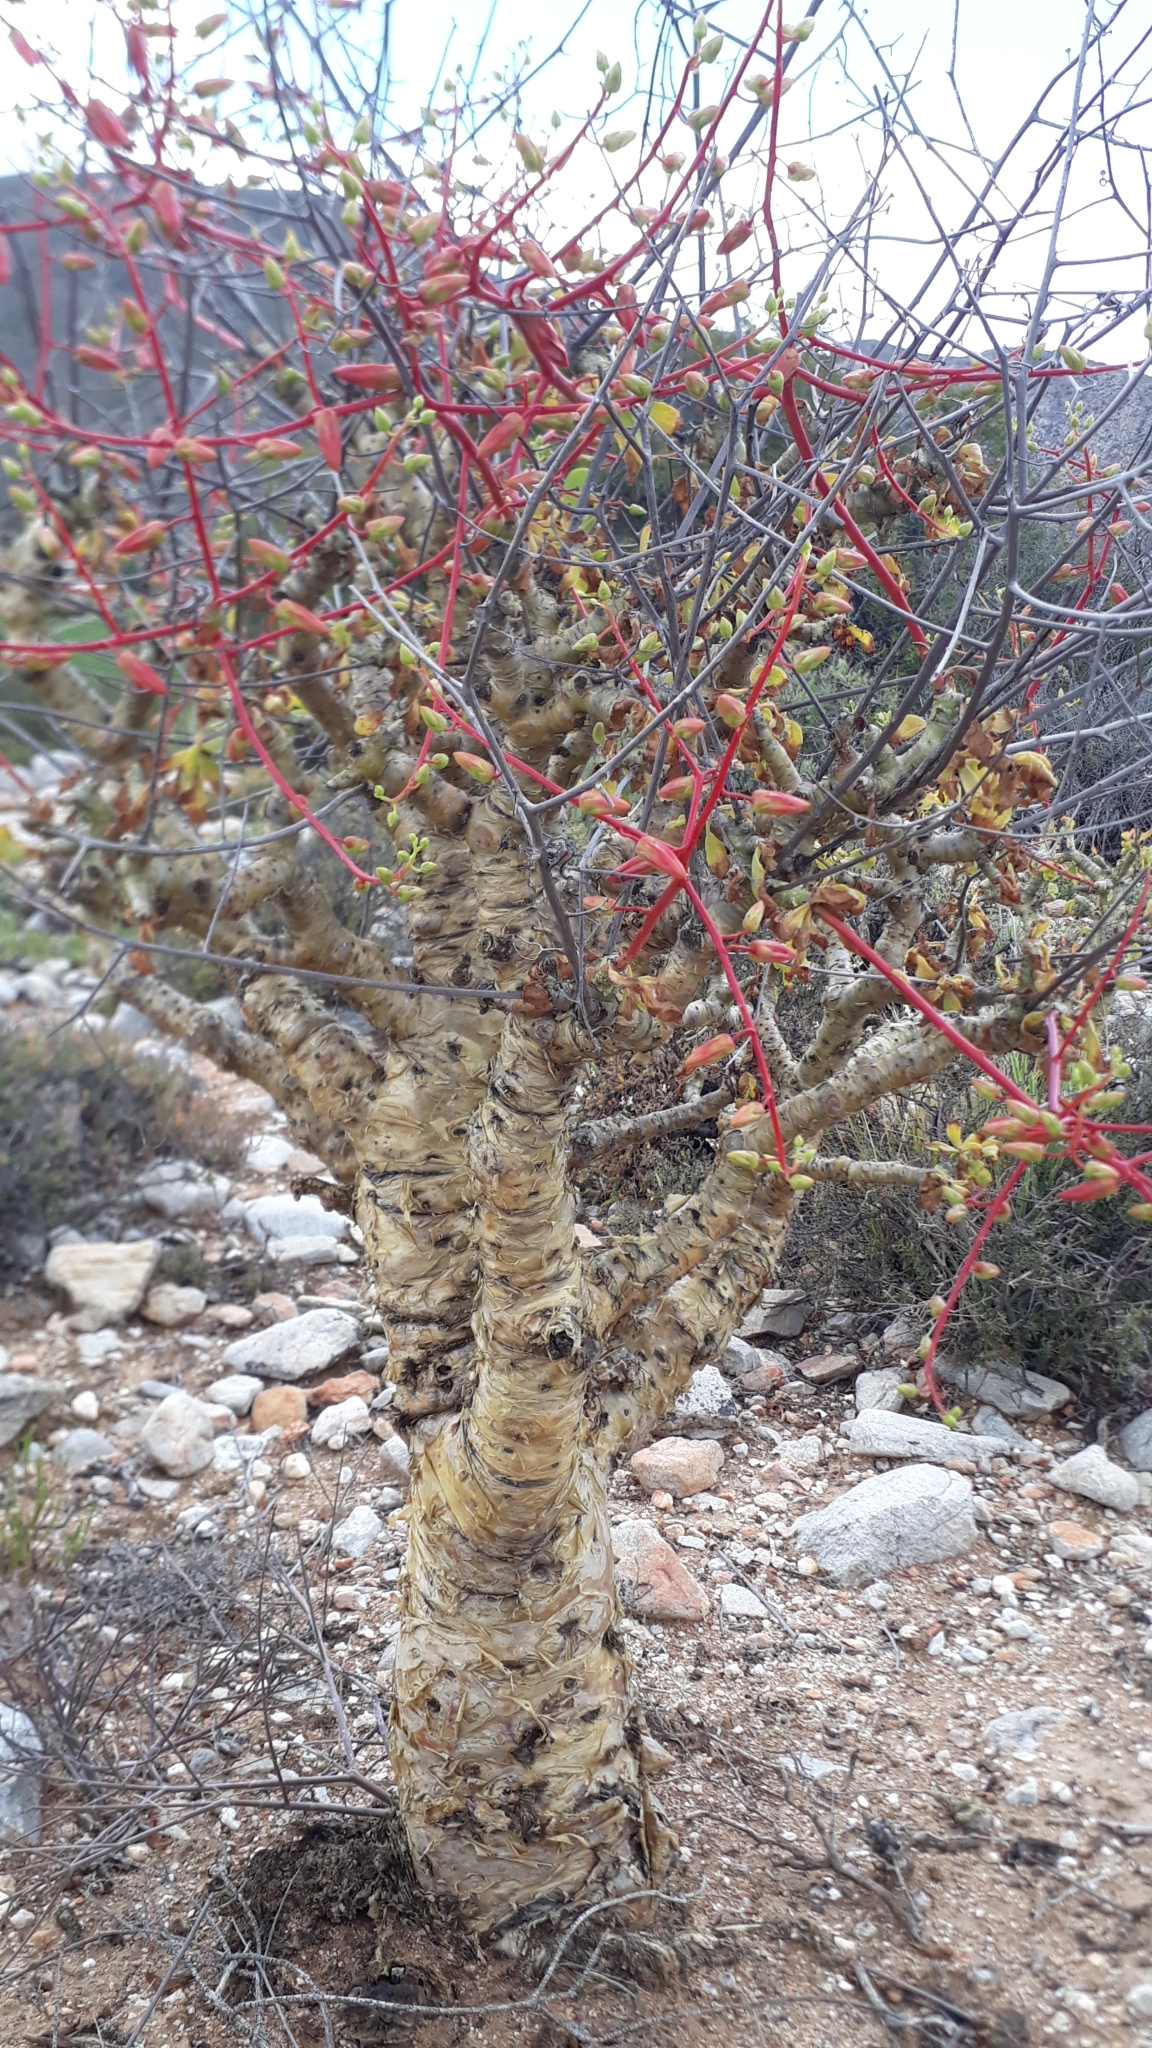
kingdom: Plantae
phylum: Tracheophyta
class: Magnoliopsida
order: Saxifragales
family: Crassulaceae
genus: Tylecodon
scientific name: Tylecodon paniculatus
